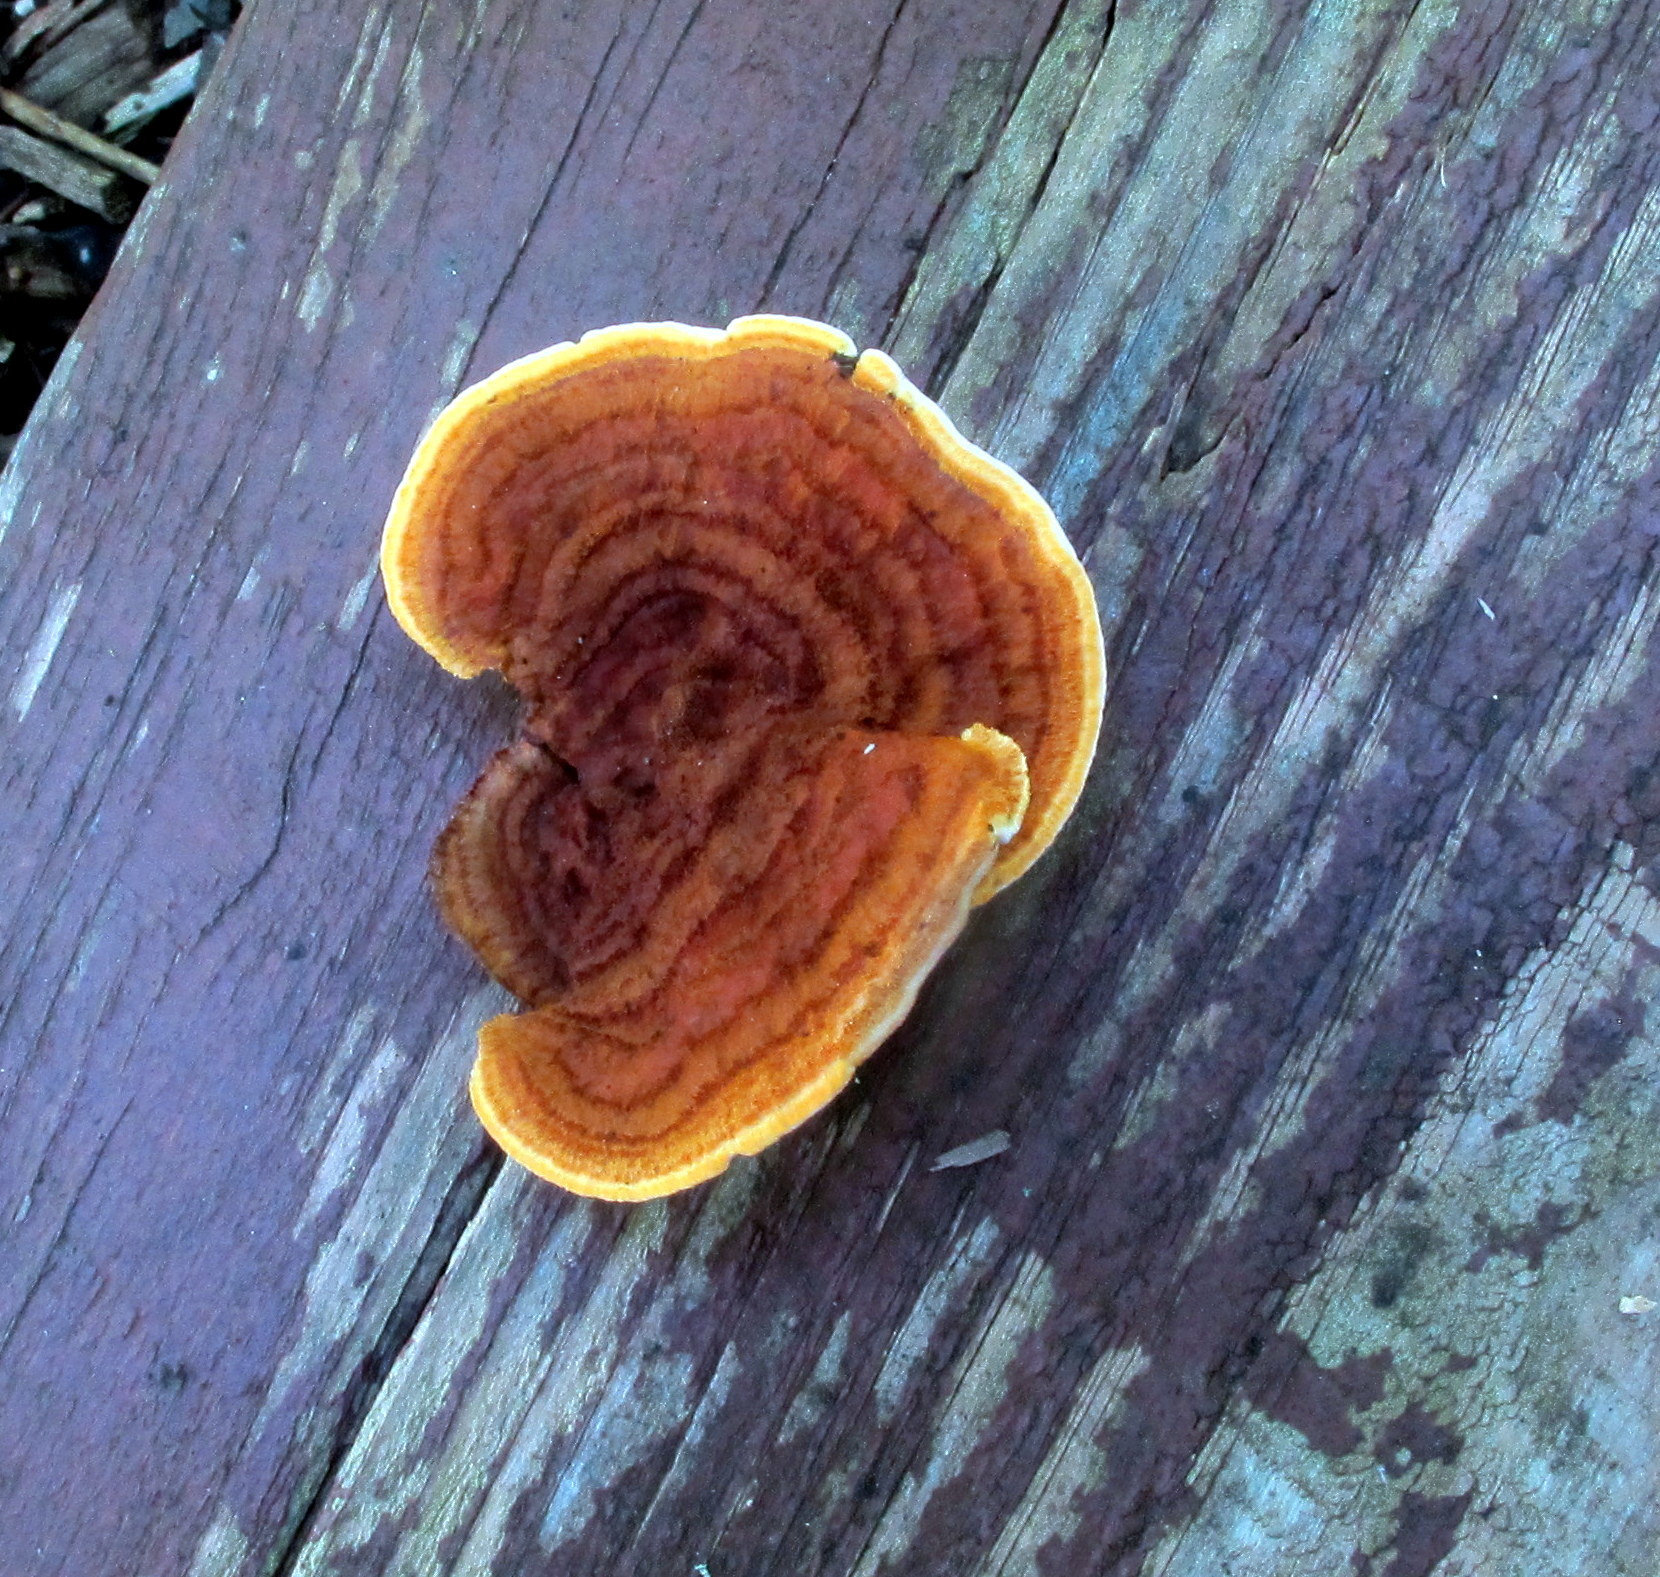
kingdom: Fungi
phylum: Basidiomycota
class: Agaricomycetes
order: Gloeophyllales
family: Gloeophyllaceae
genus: Gloeophyllum
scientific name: Gloeophyllum sepiarium
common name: Conifer mazegill
